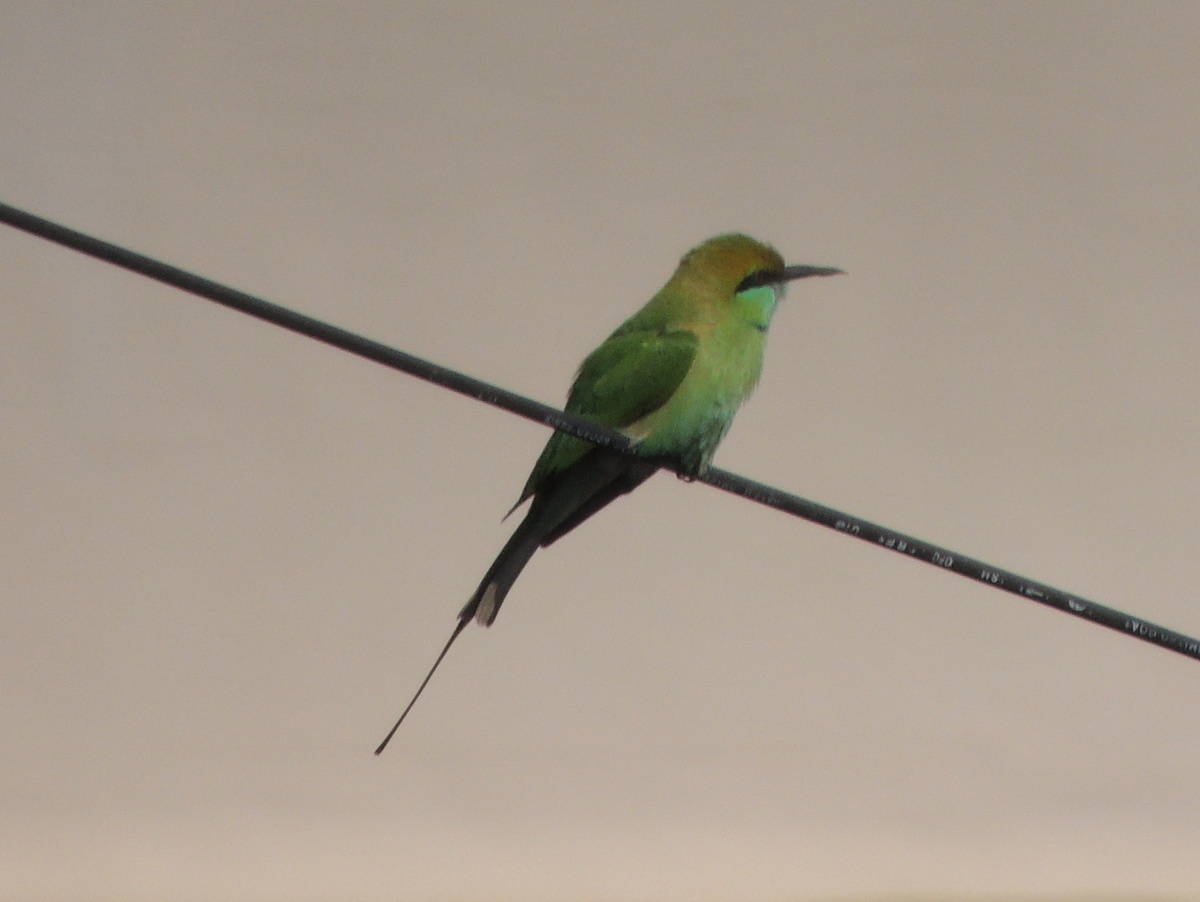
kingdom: Animalia
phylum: Chordata
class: Aves
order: Coraciiformes
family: Meropidae
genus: Merops
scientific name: Merops orientalis
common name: Green bee-eater
